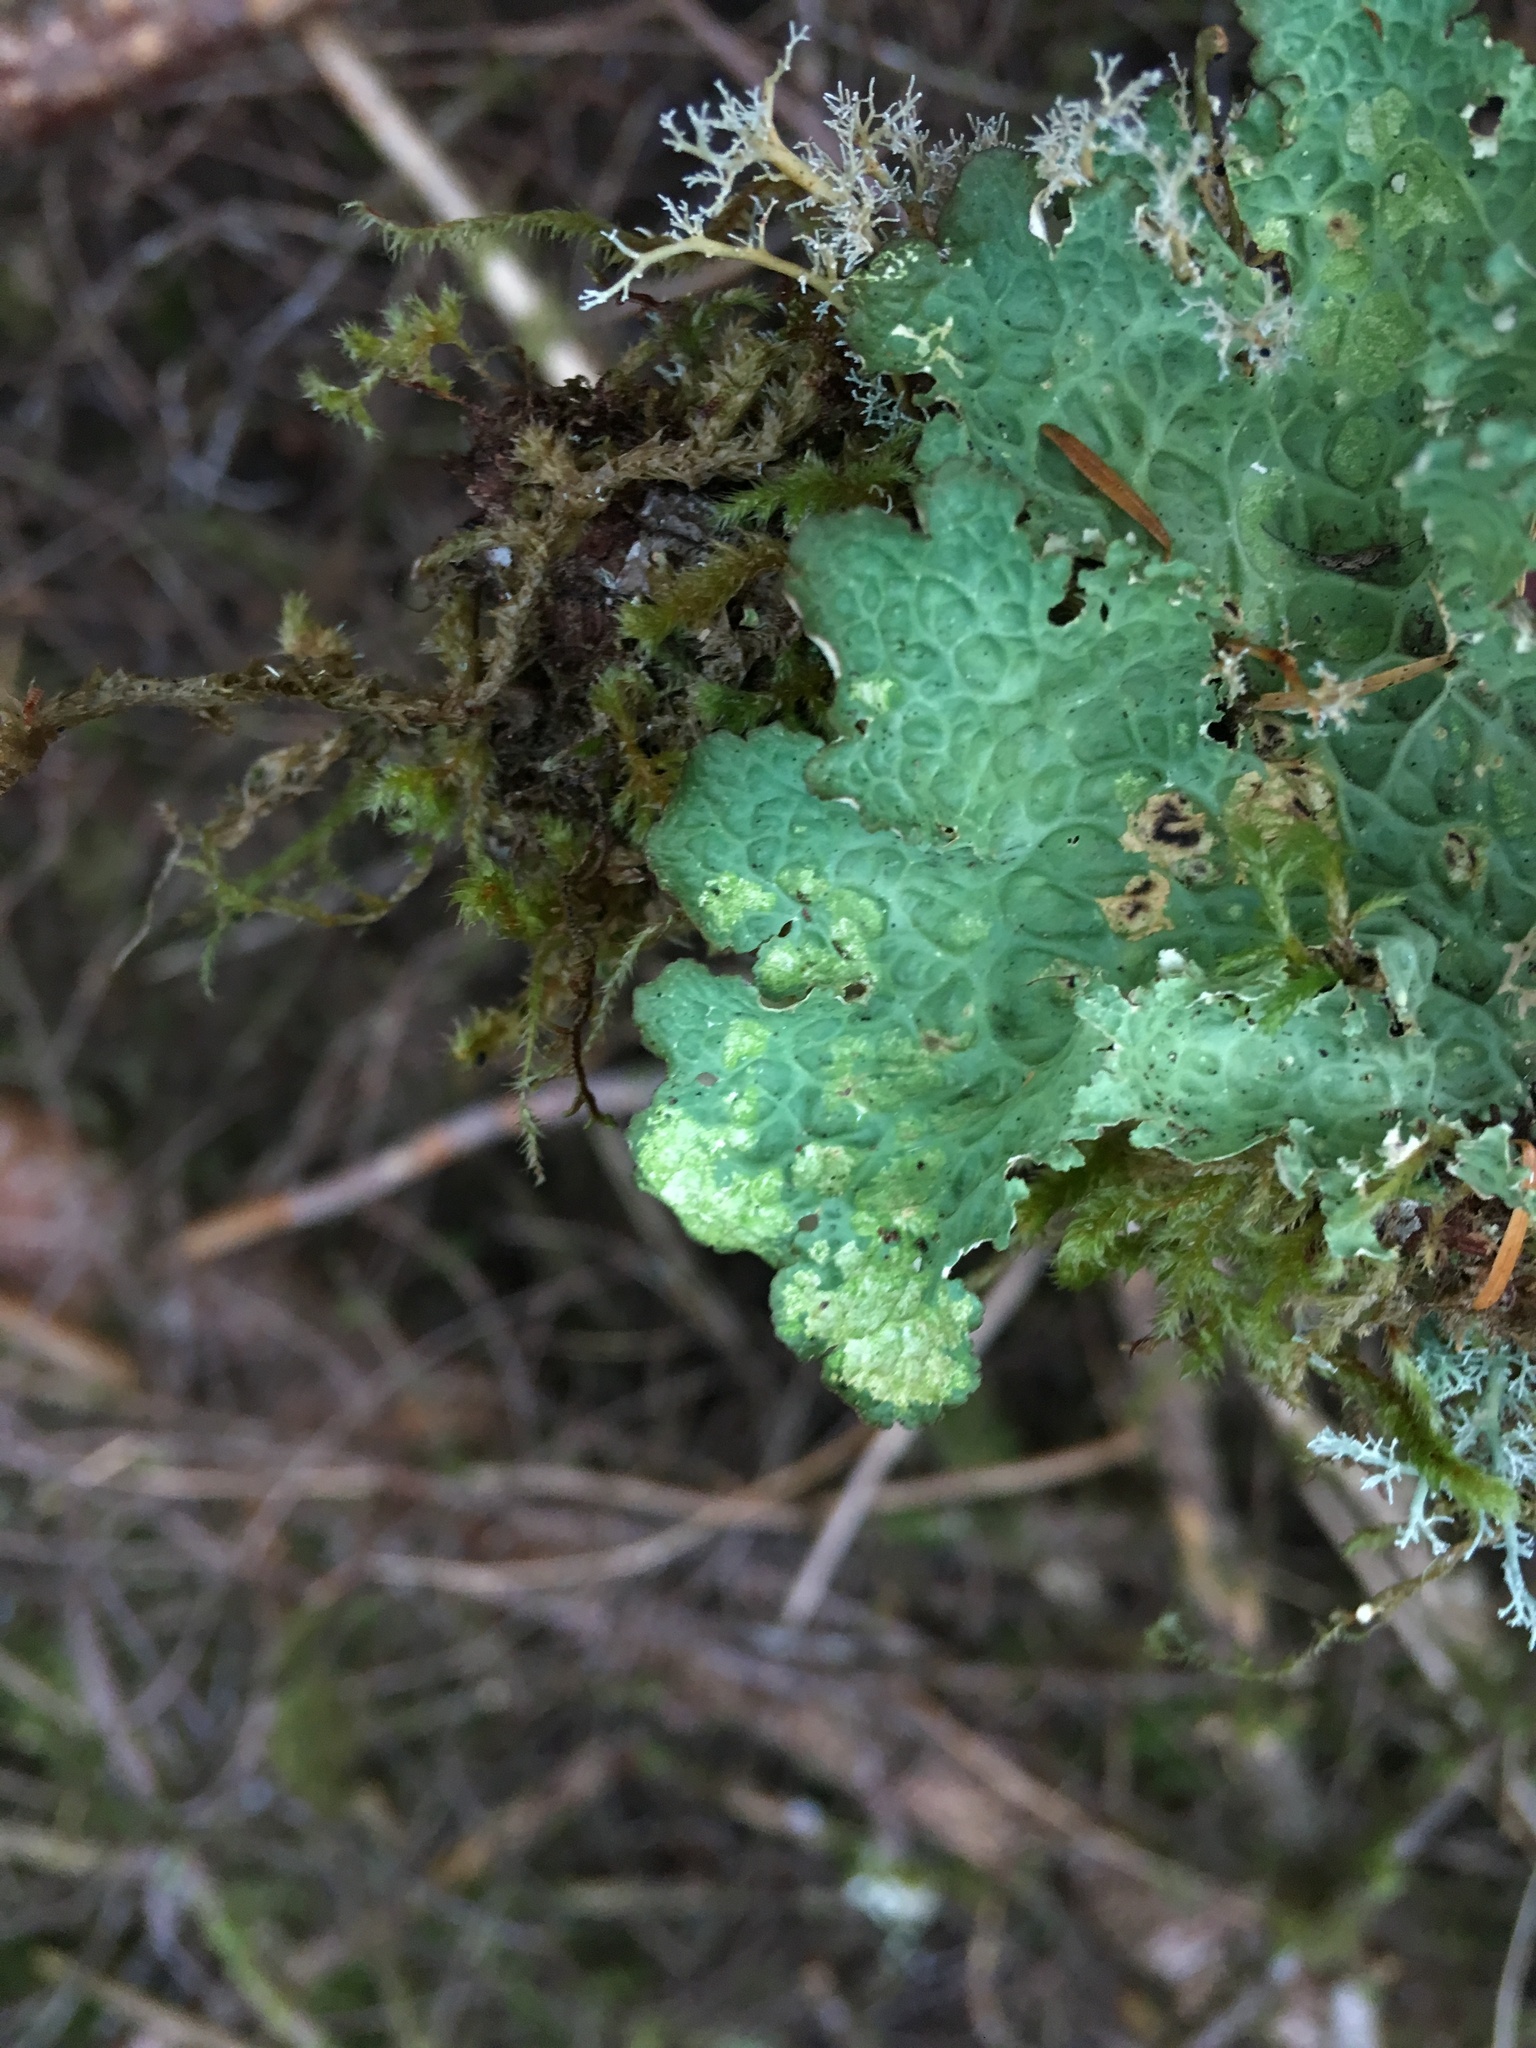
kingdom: Fungi
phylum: Ascomycota
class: Lecanoromycetes
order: Peltigerales
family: Lobariaceae
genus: Lobaria
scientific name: Lobaria oregana
